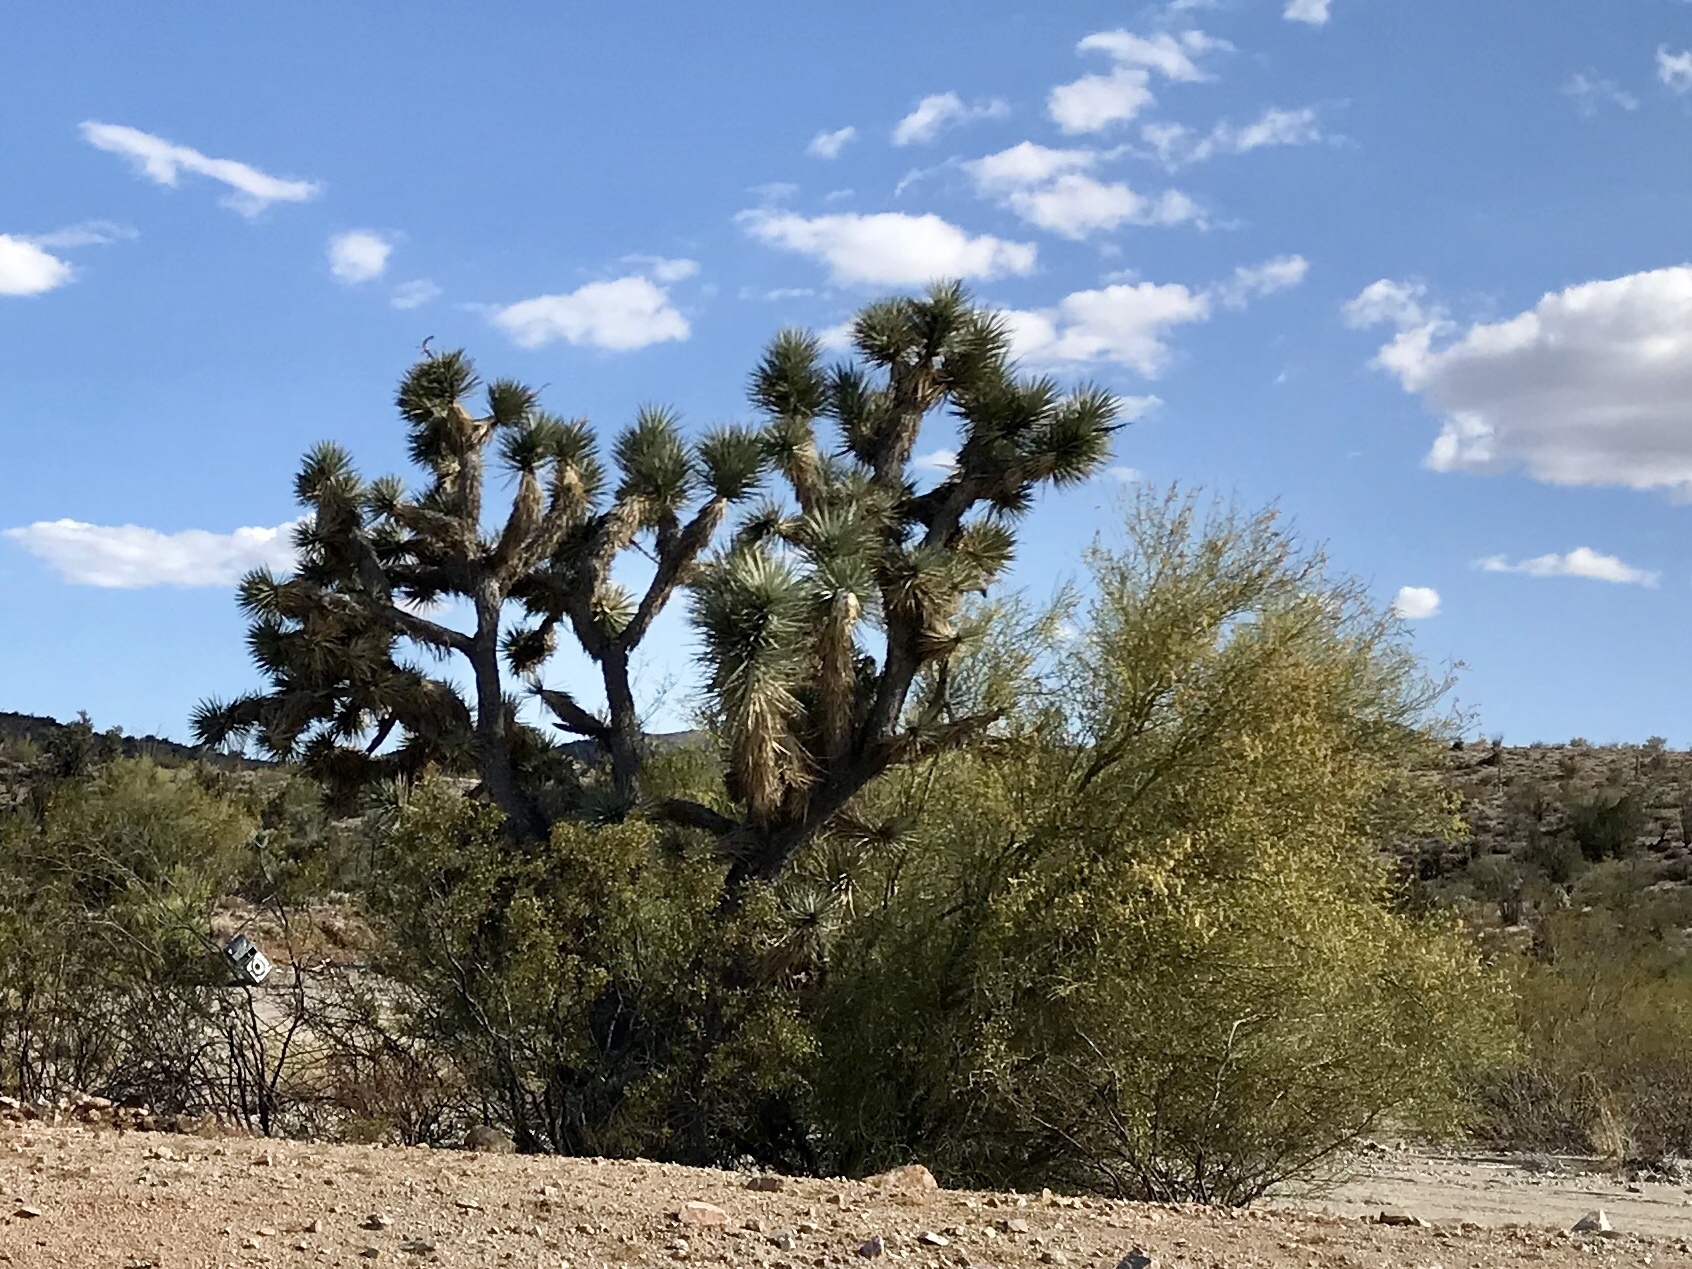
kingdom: Plantae
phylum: Tracheophyta
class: Magnoliopsida
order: Fabales
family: Fabaceae
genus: Parkinsonia
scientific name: Parkinsonia microphylla
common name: Yellow paloverde
